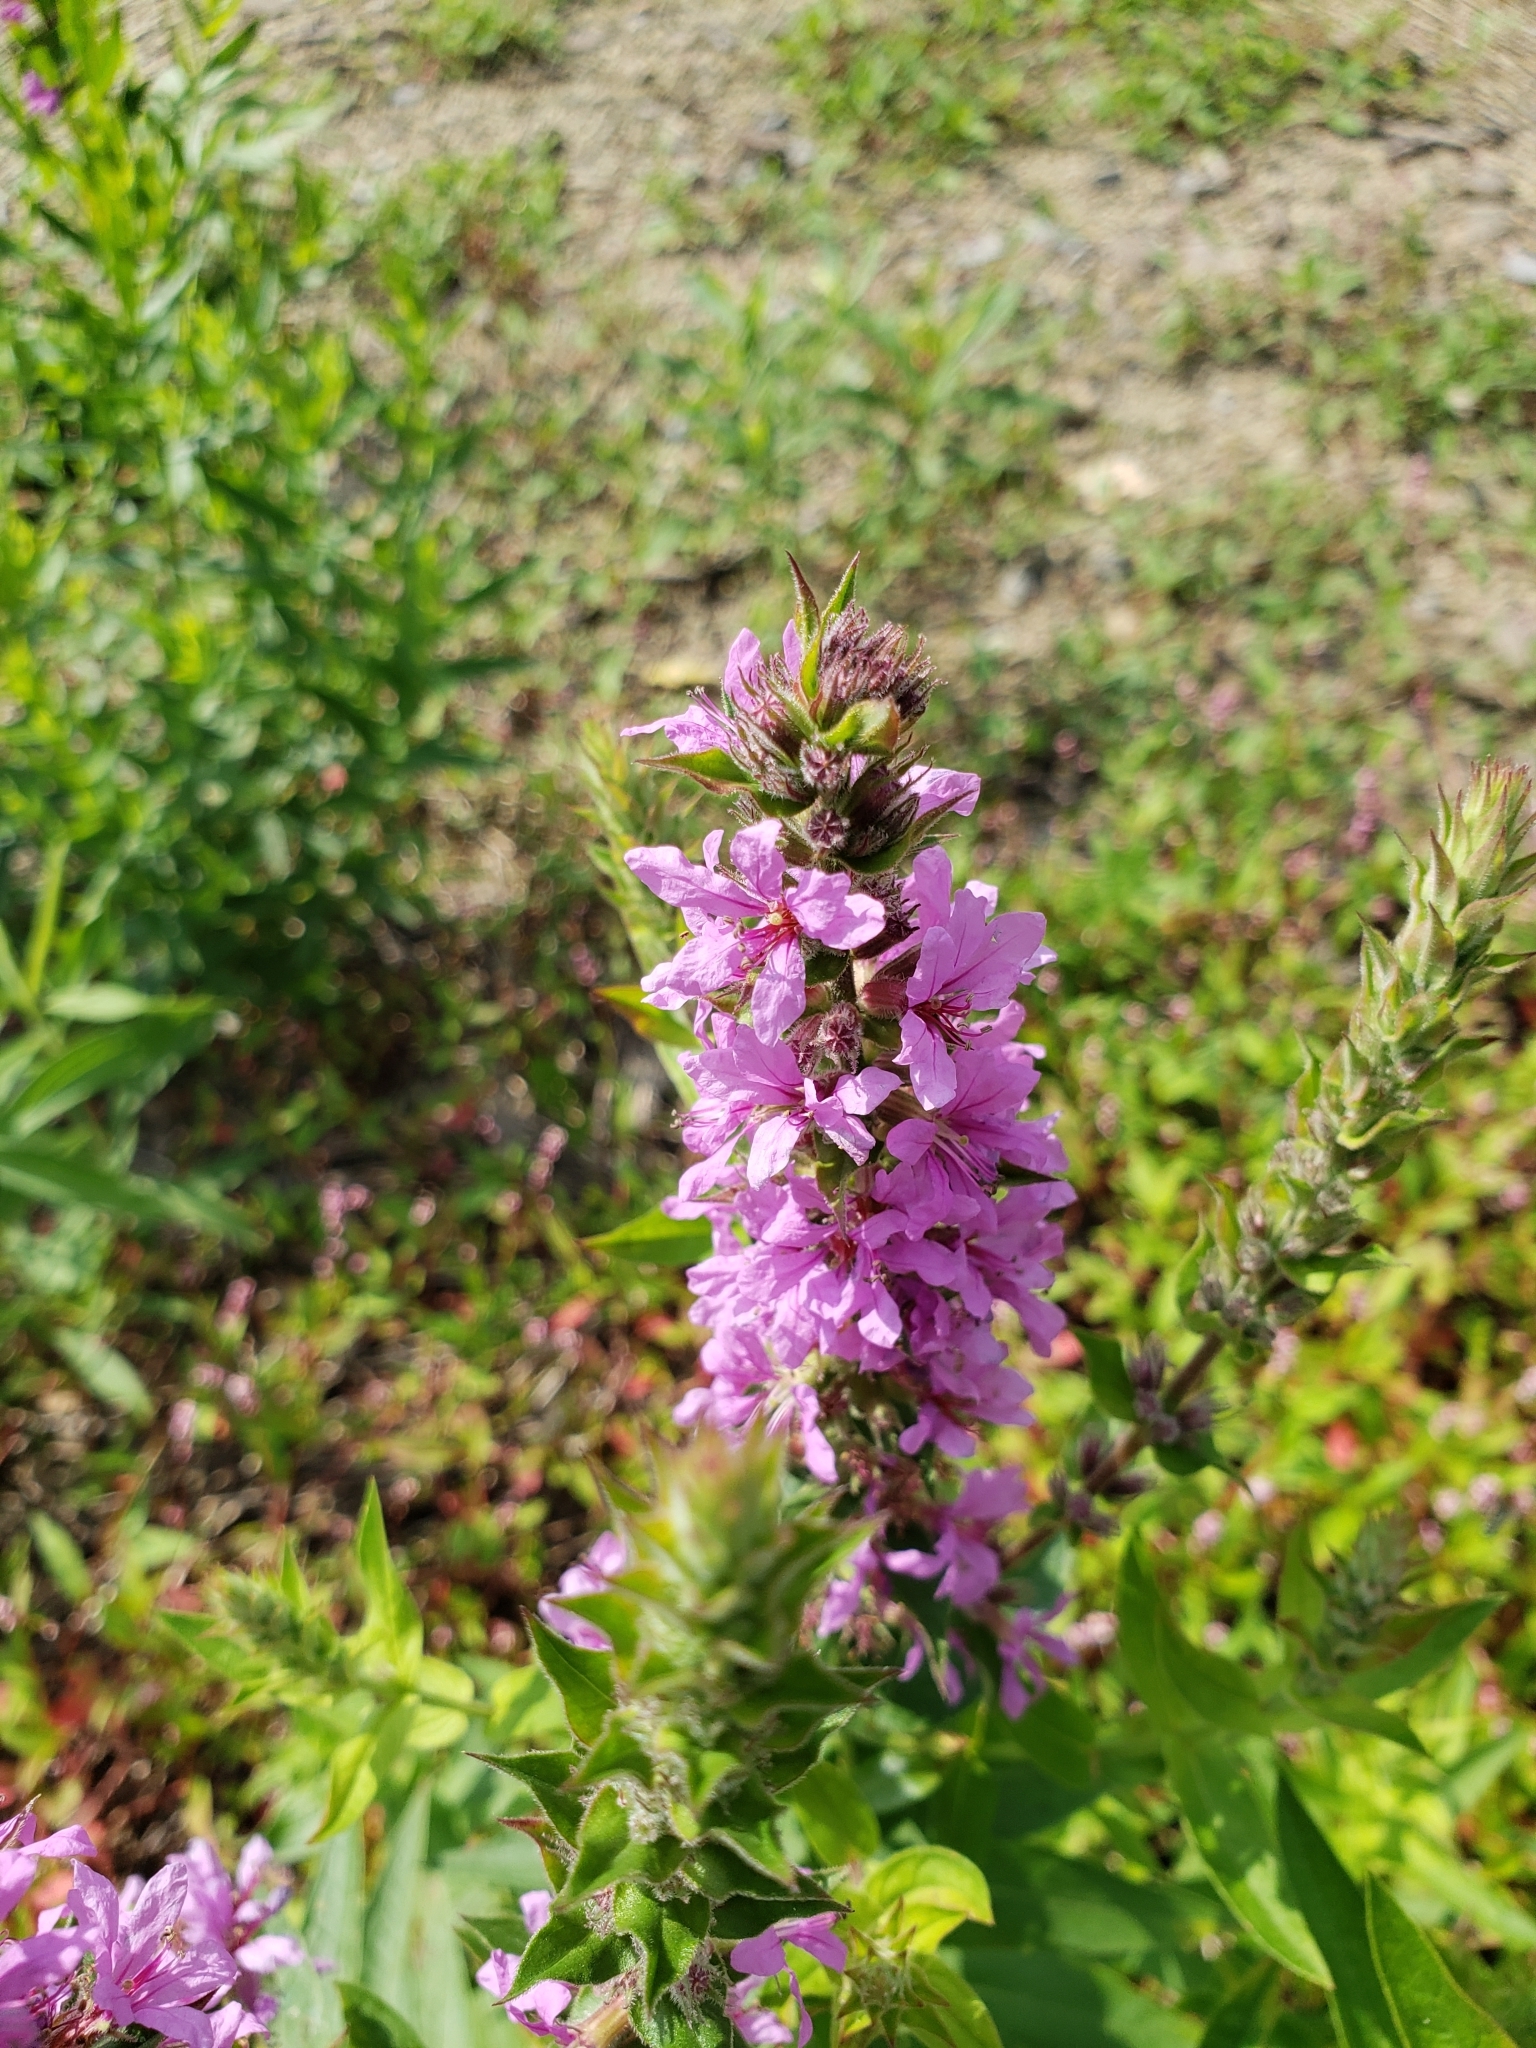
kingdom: Plantae
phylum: Tracheophyta
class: Magnoliopsida
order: Myrtales
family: Lythraceae
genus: Lythrum
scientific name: Lythrum salicaria
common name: Purple loosestrife
